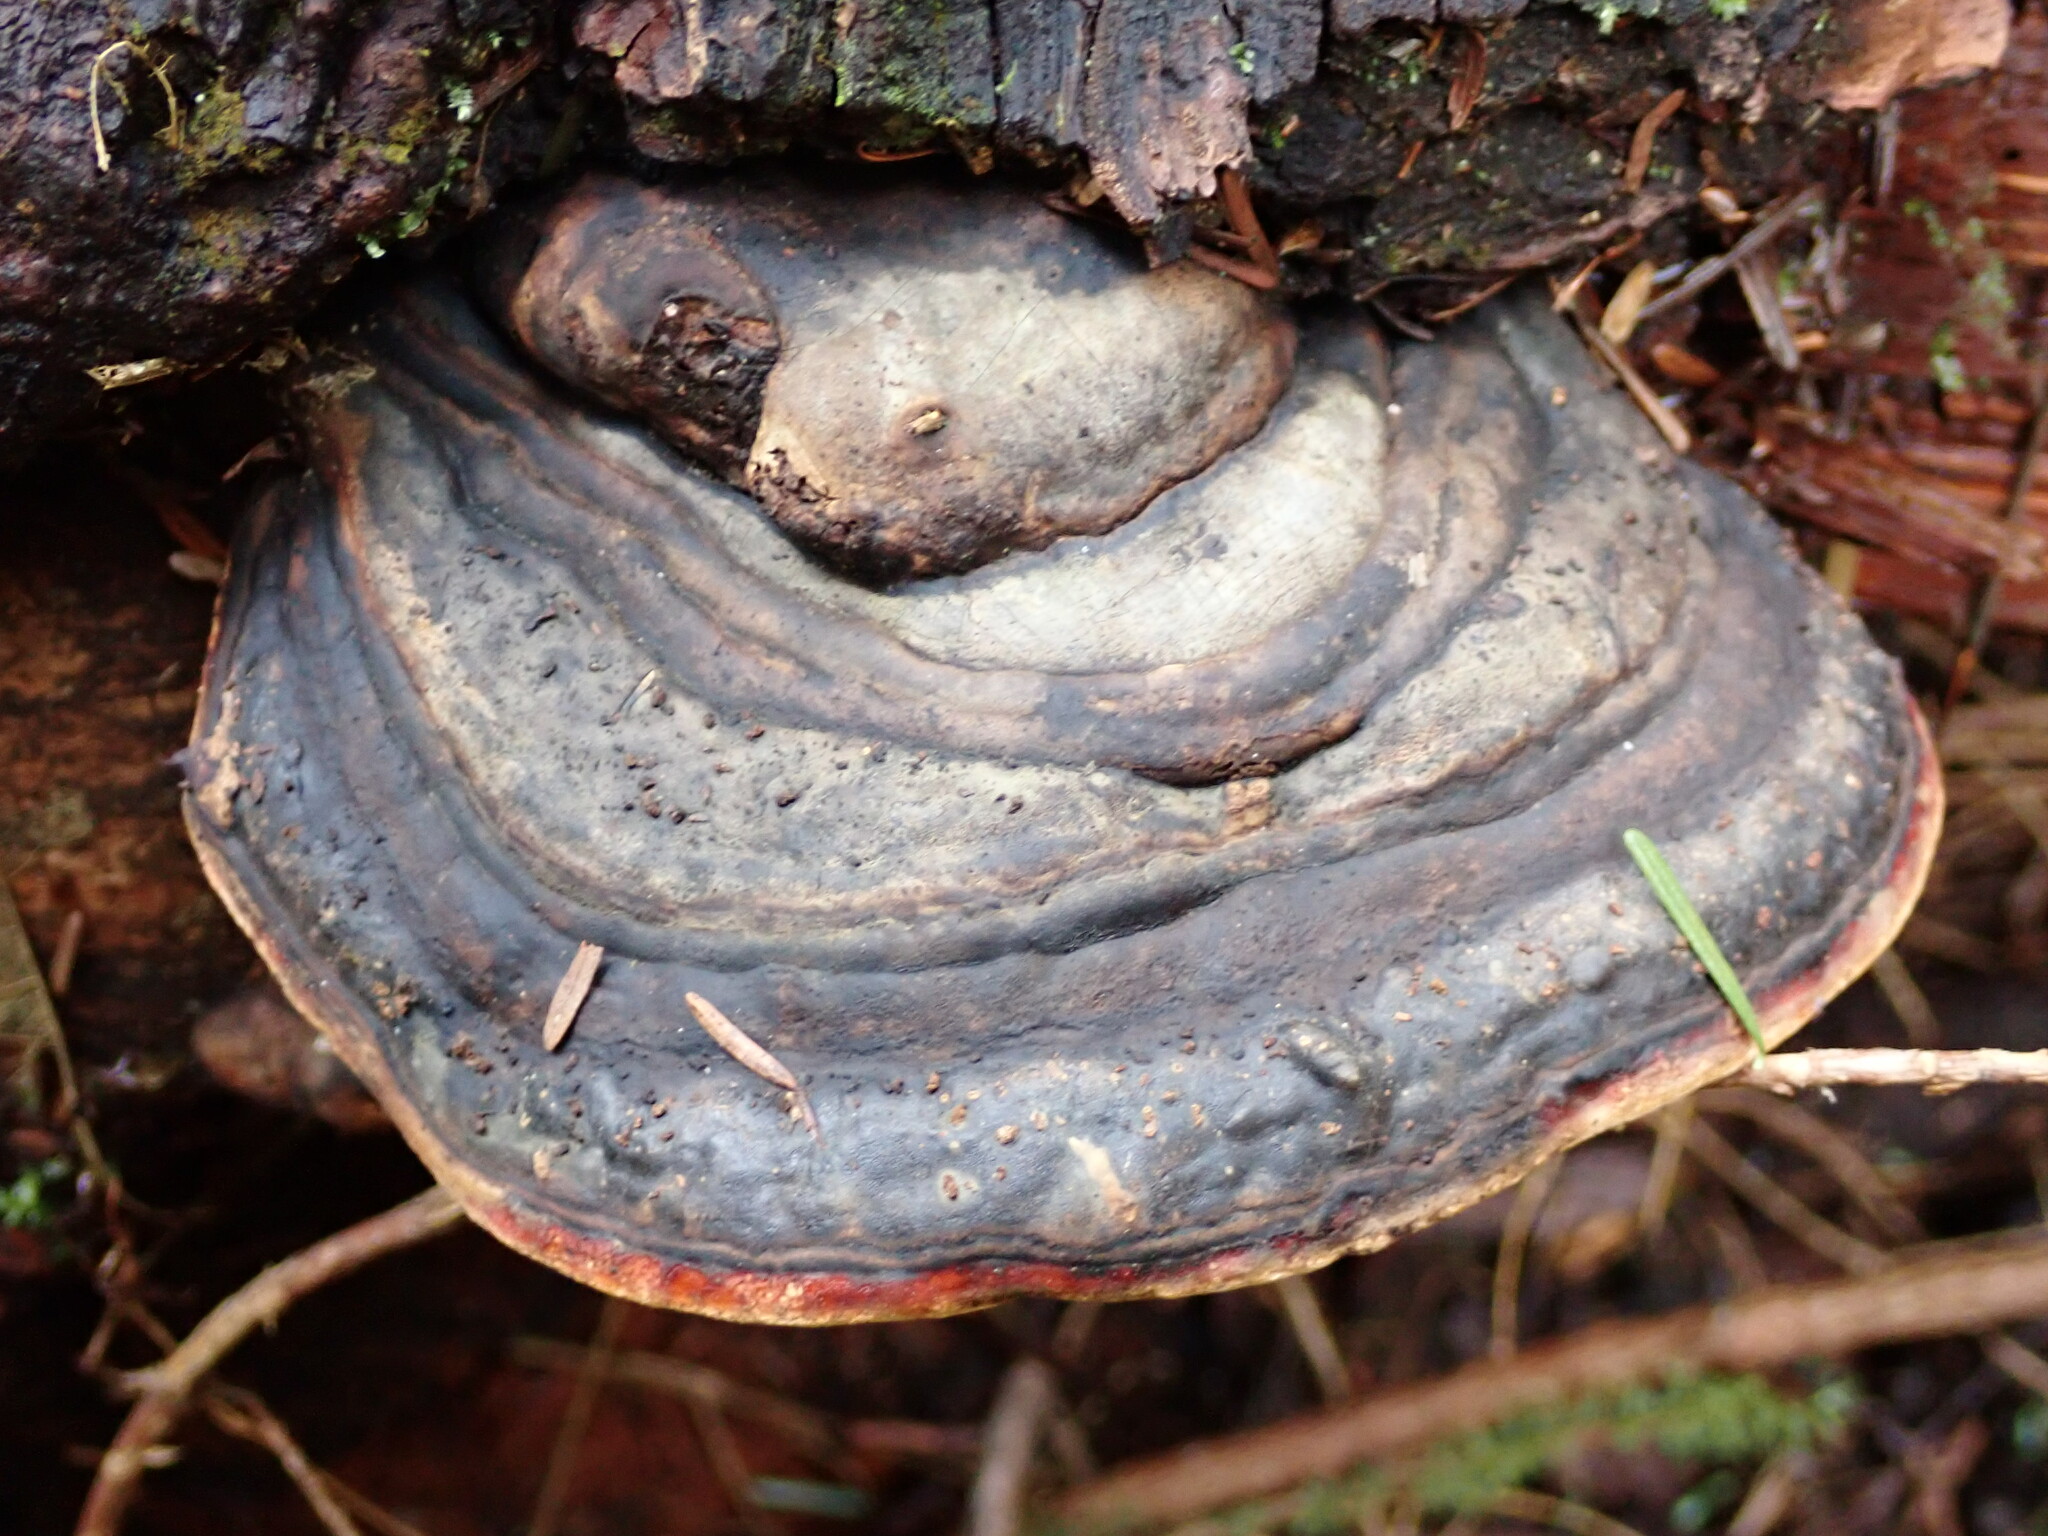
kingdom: Fungi
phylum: Basidiomycota
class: Agaricomycetes
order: Polyporales
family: Fomitopsidaceae
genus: Fomitopsis
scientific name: Fomitopsis mounceae
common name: Northern red belt
